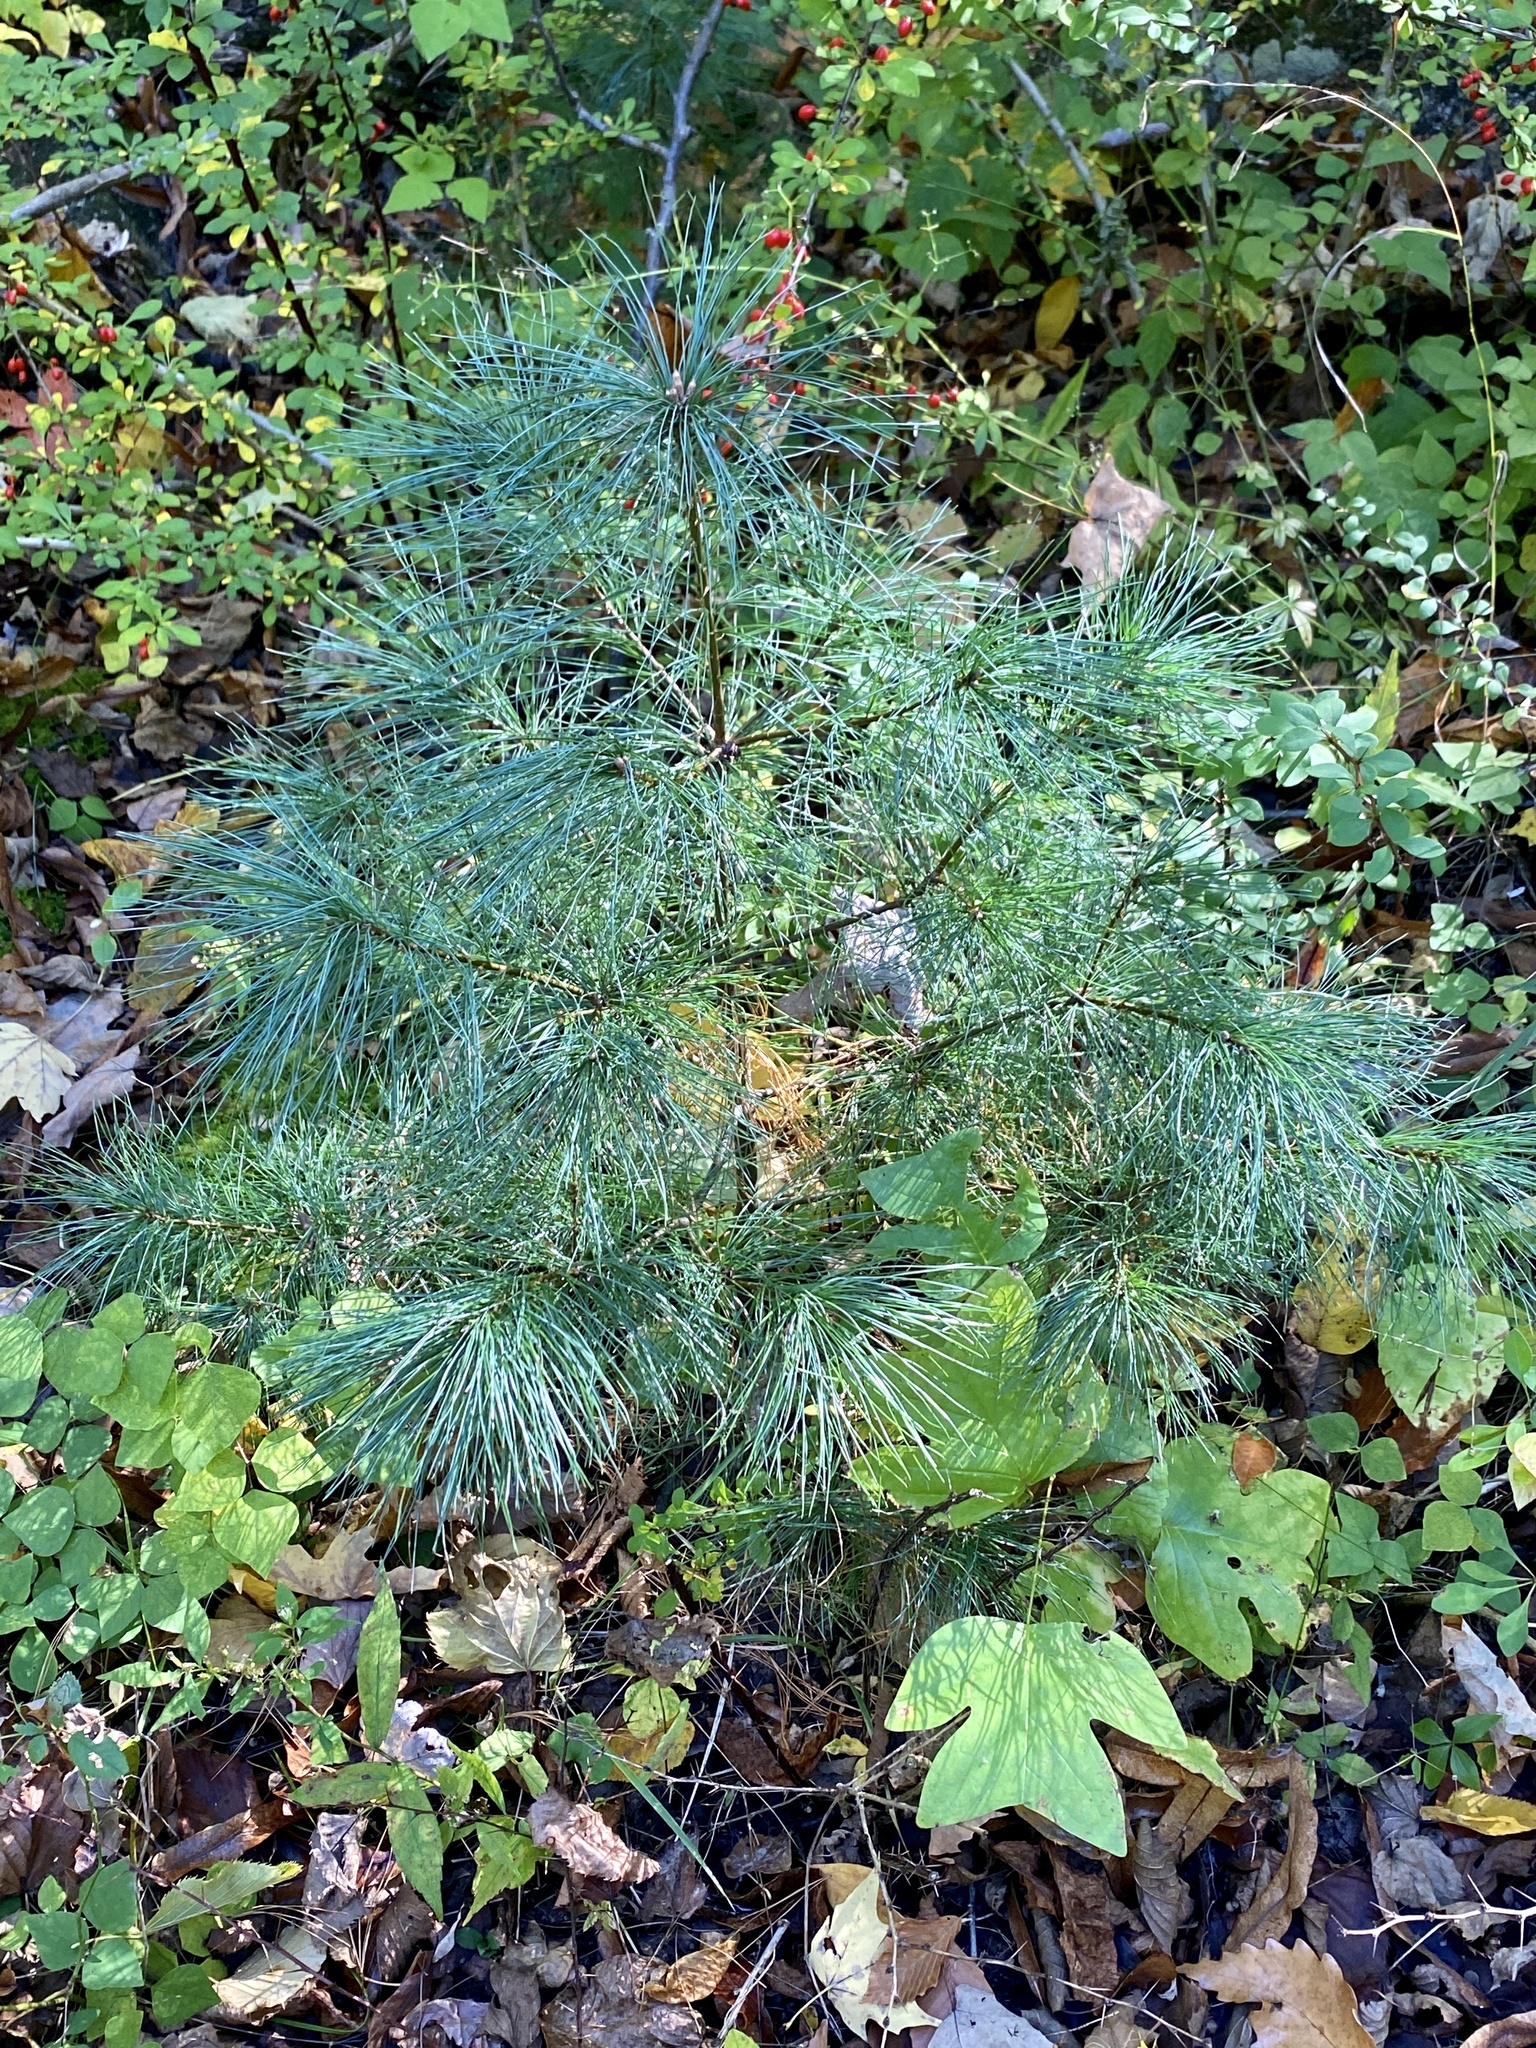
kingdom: Plantae
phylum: Tracheophyta
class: Pinopsida
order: Pinales
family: Pinaceae
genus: Pinus
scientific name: Pinus strobus
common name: Weymouth pine
